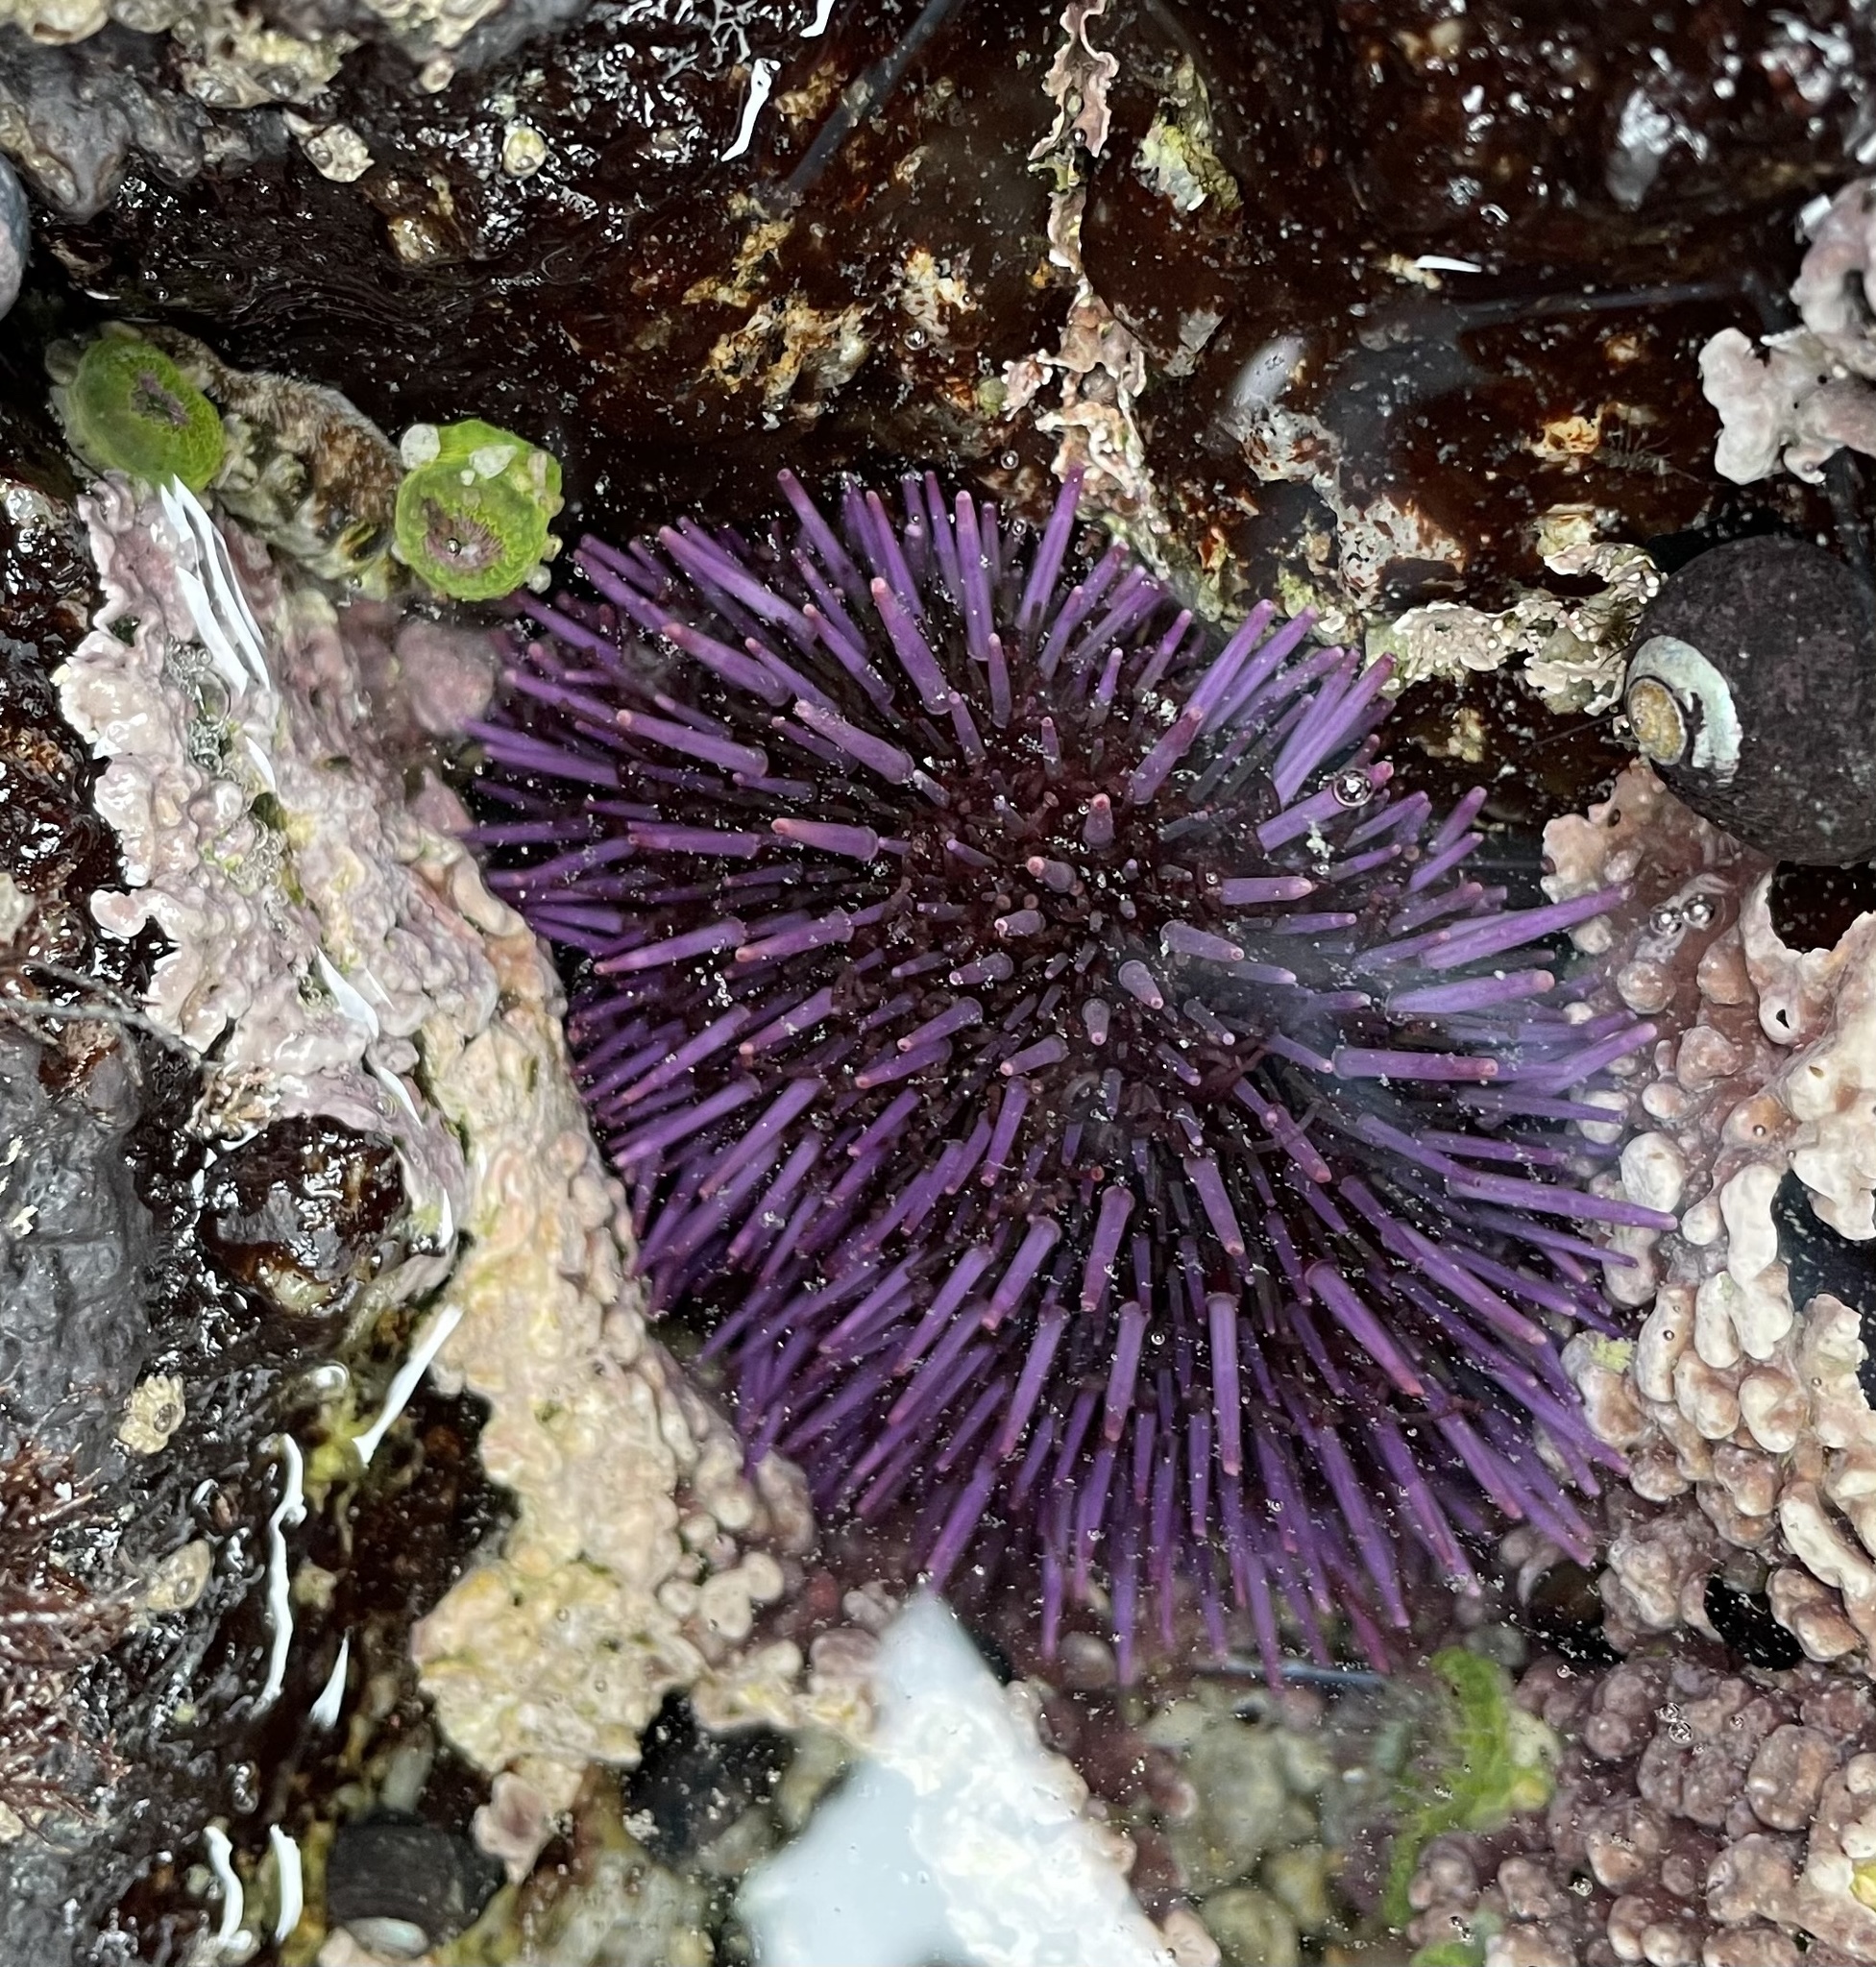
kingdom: Animalia
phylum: Echinodermata
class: Echinoidea
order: Camarodonta
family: Strongylocentrotidae
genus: Strongylocentrotus
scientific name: Strongylocentrotus purpuratus
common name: Purple sea urchin
